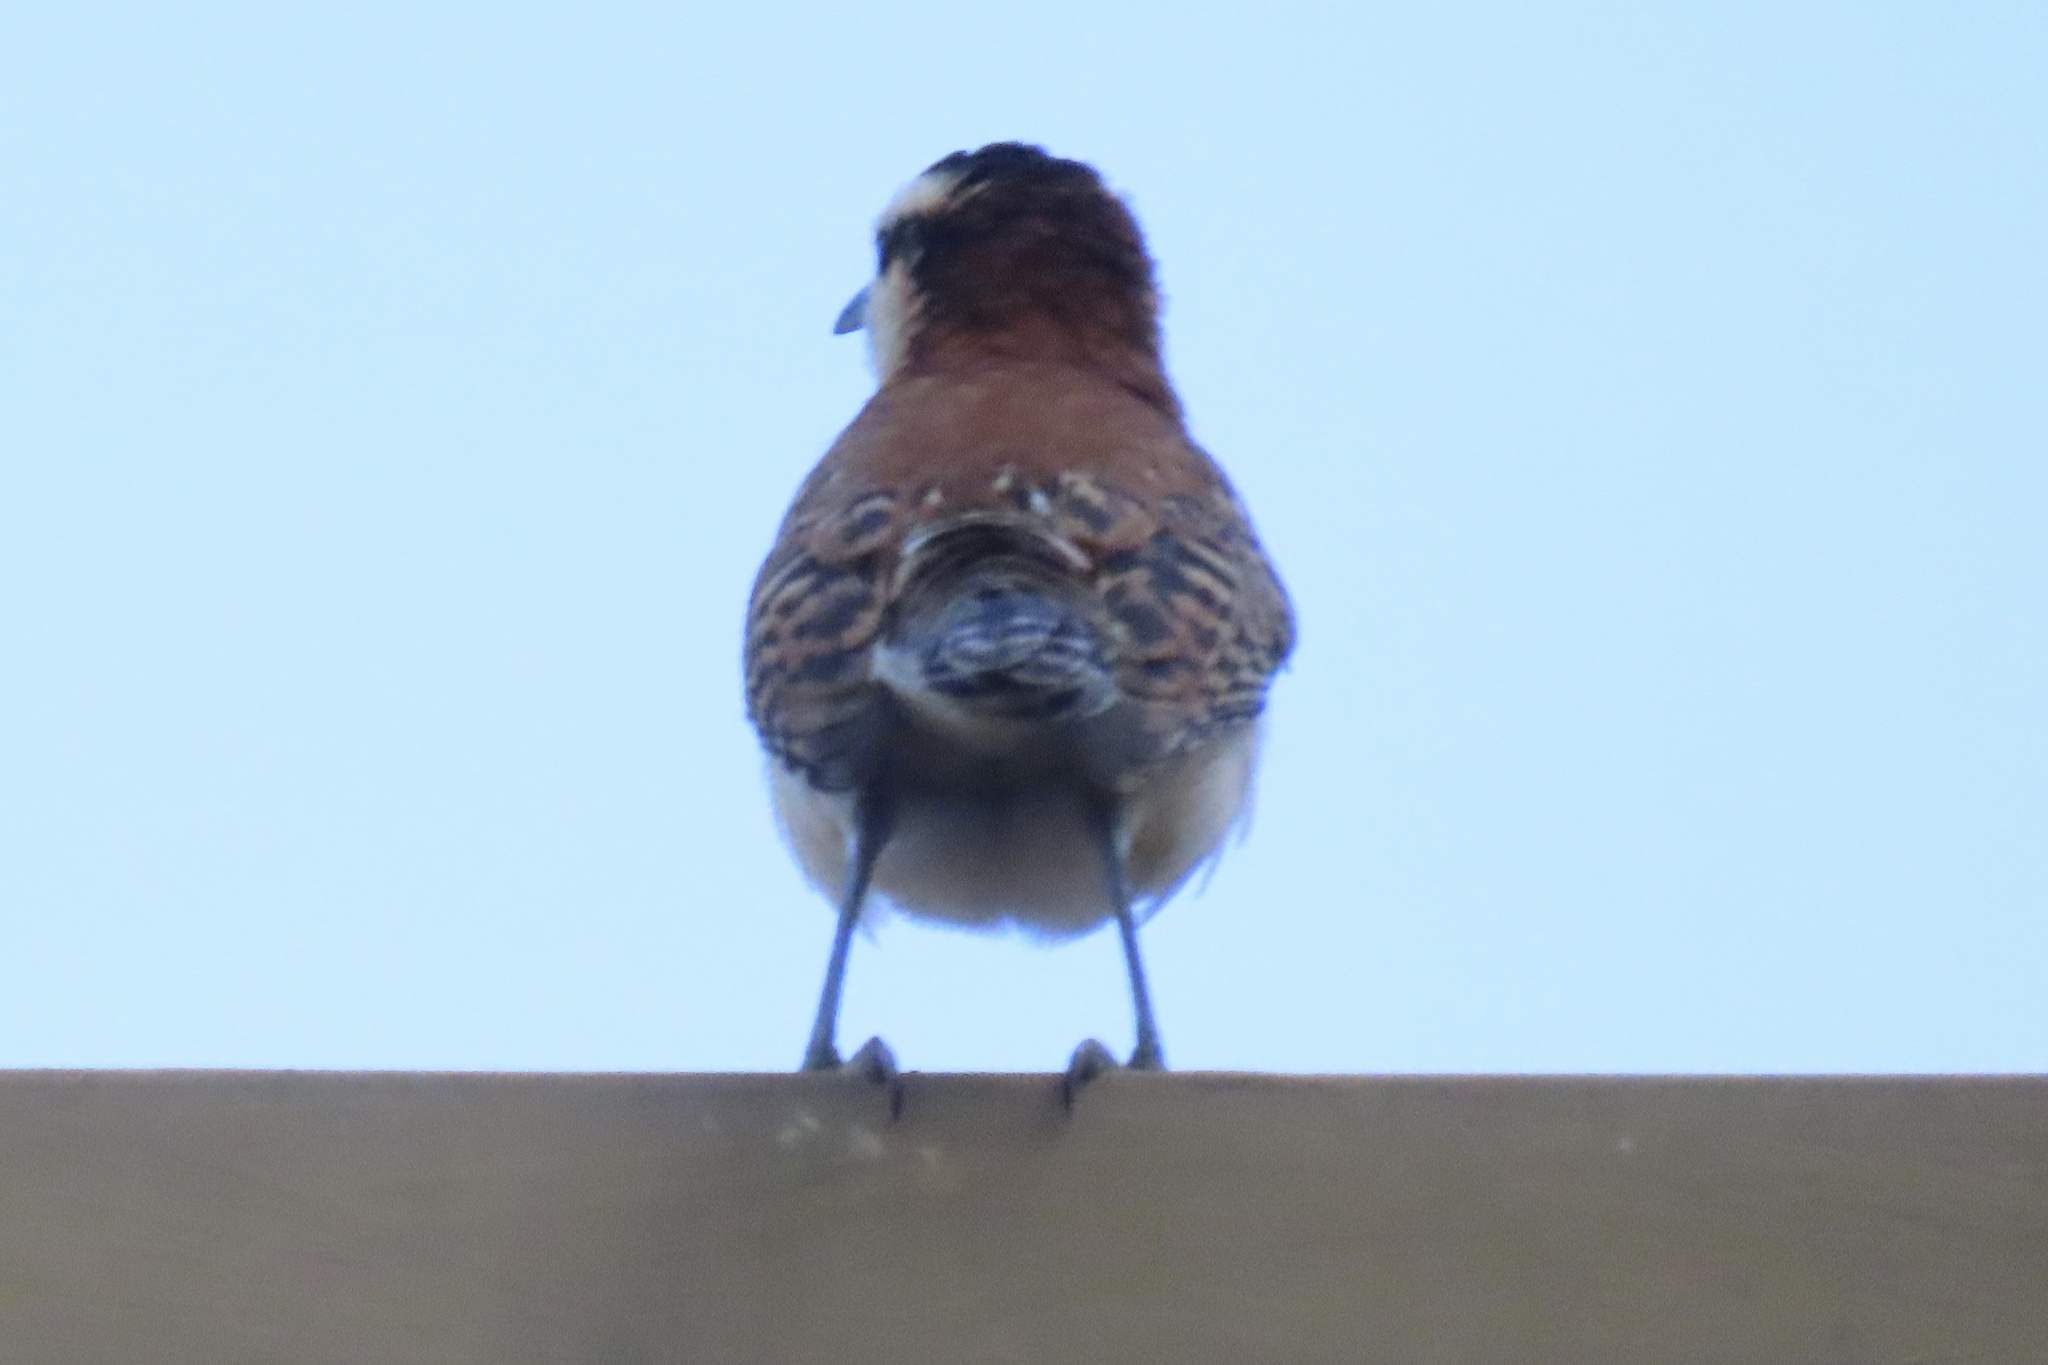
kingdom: Animalia
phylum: Chordata
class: Aves
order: Passeriformes
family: Troglodytidae
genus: Campylorhynchus
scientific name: Campylorhynchus rufinucha
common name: Rufous-naped wren
